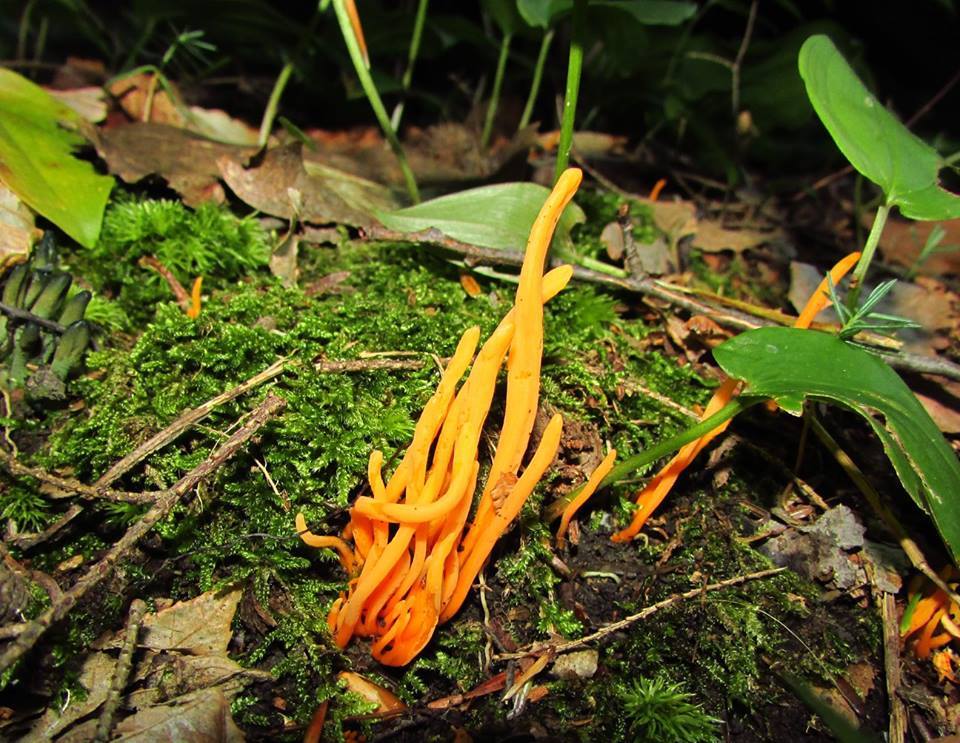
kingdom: Fungi
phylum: Basidiomycota
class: Agaricomycetes
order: Agaricales
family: Clavariaceae
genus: Clavulinopsis
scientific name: Clavulinopsis aurantiocinnabarina
